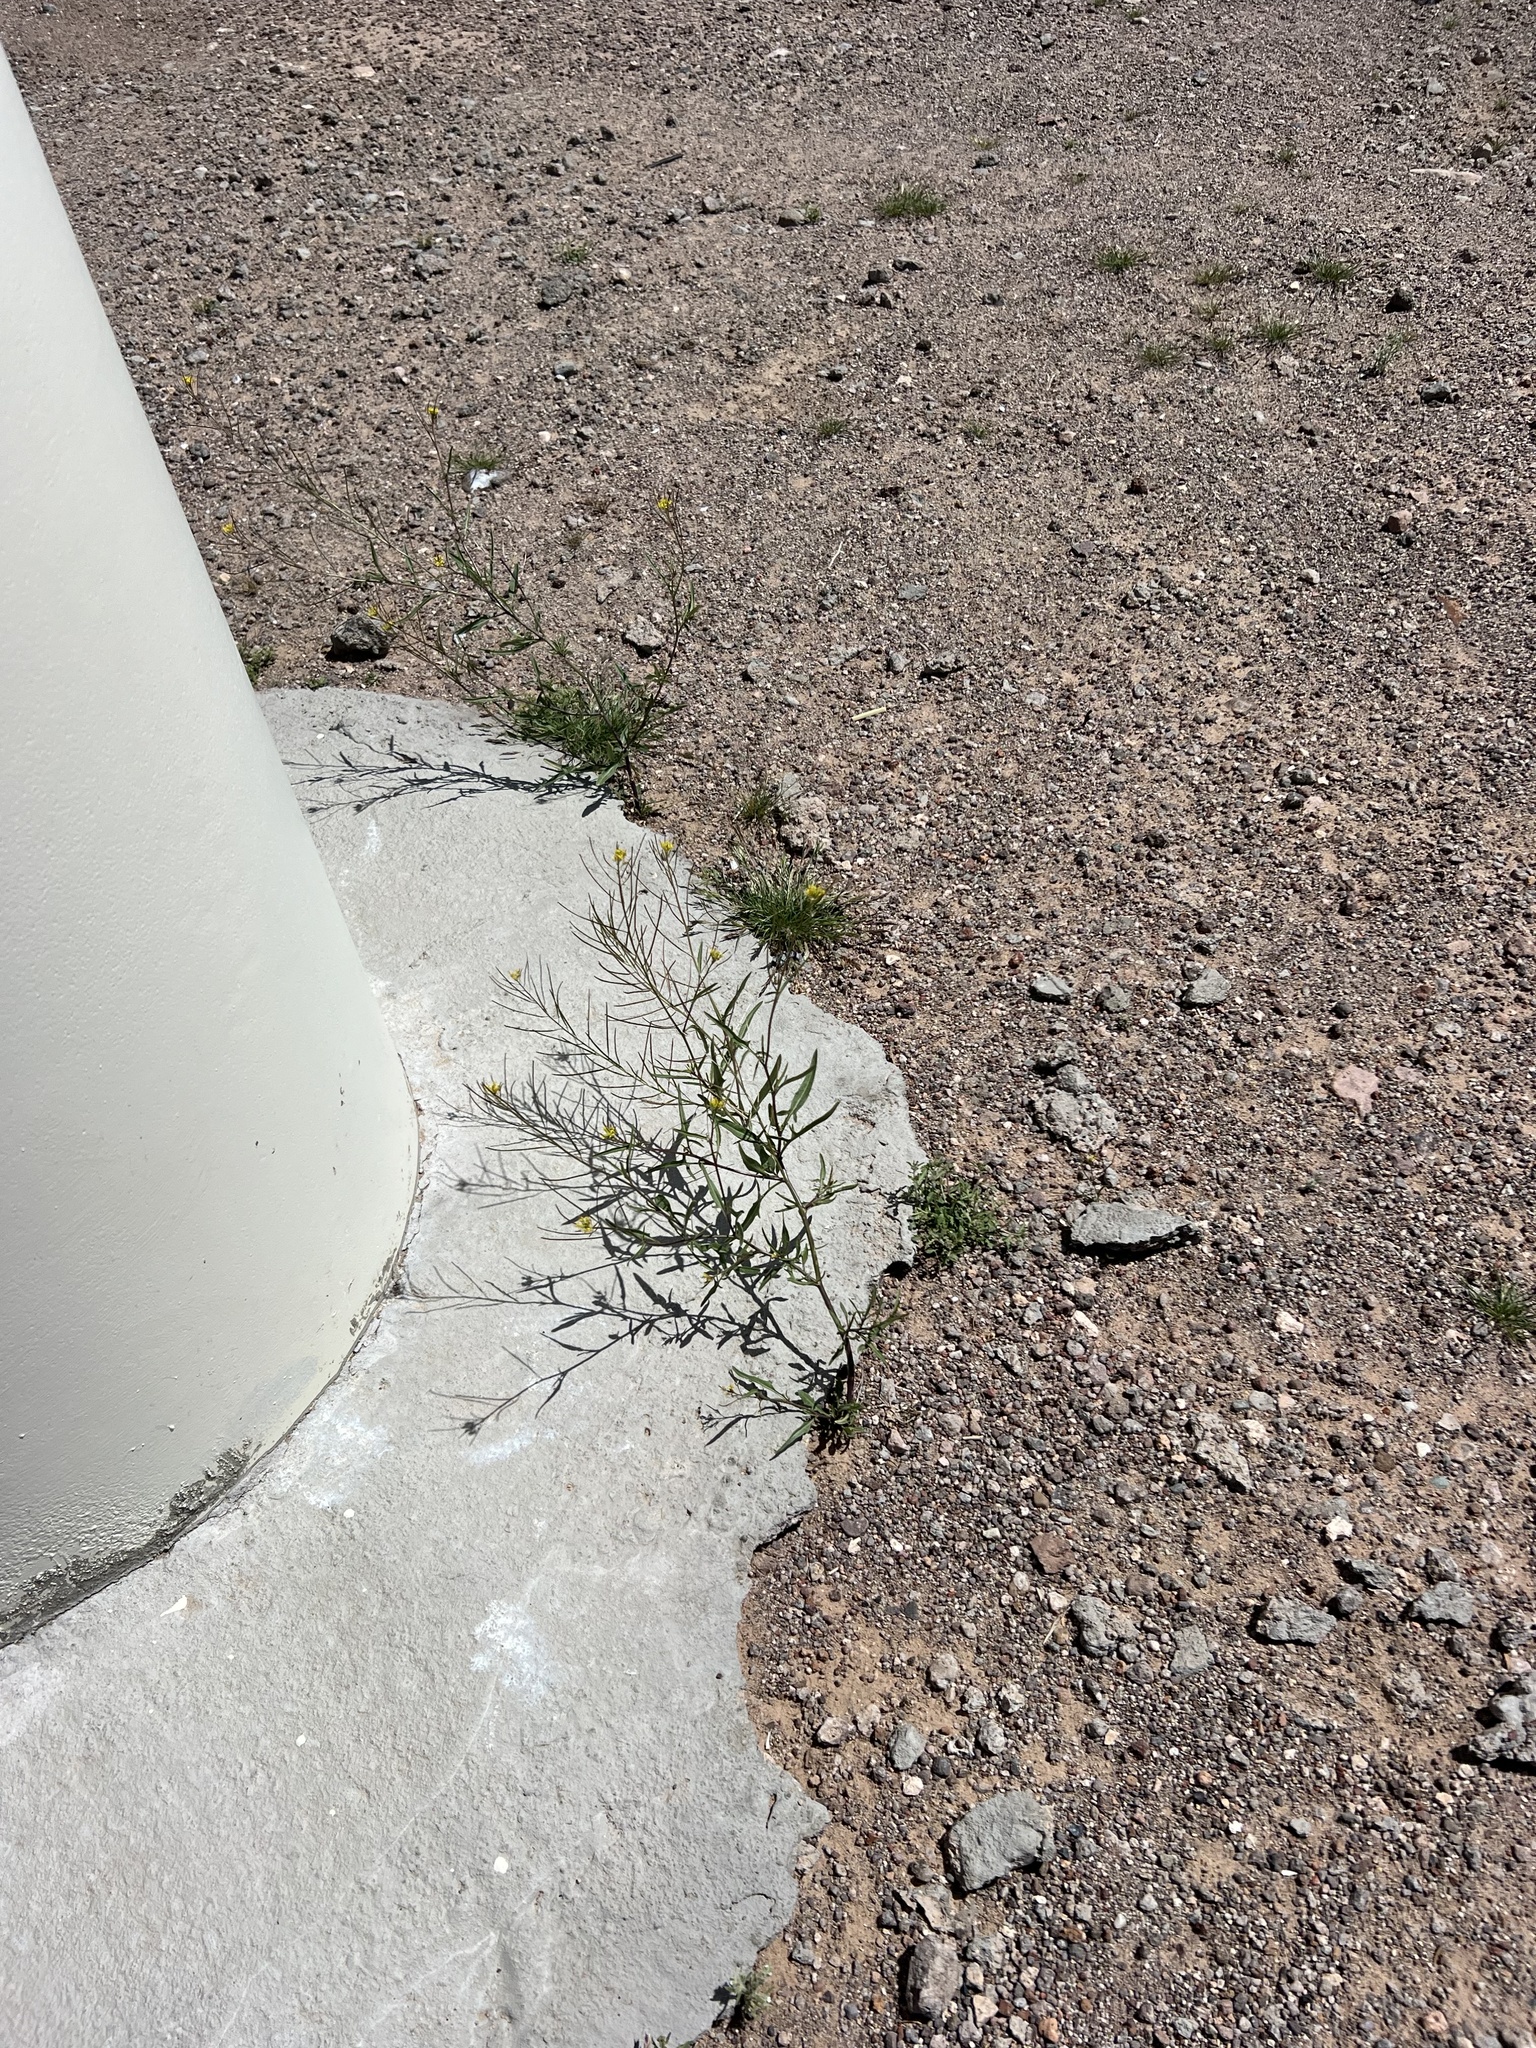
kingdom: Plantae
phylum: Tracheophyta
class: Magnoliopsida
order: Brassicales
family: Brassicaceae
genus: Sisymbrium
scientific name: Sisymbrium irio
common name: London rocket
